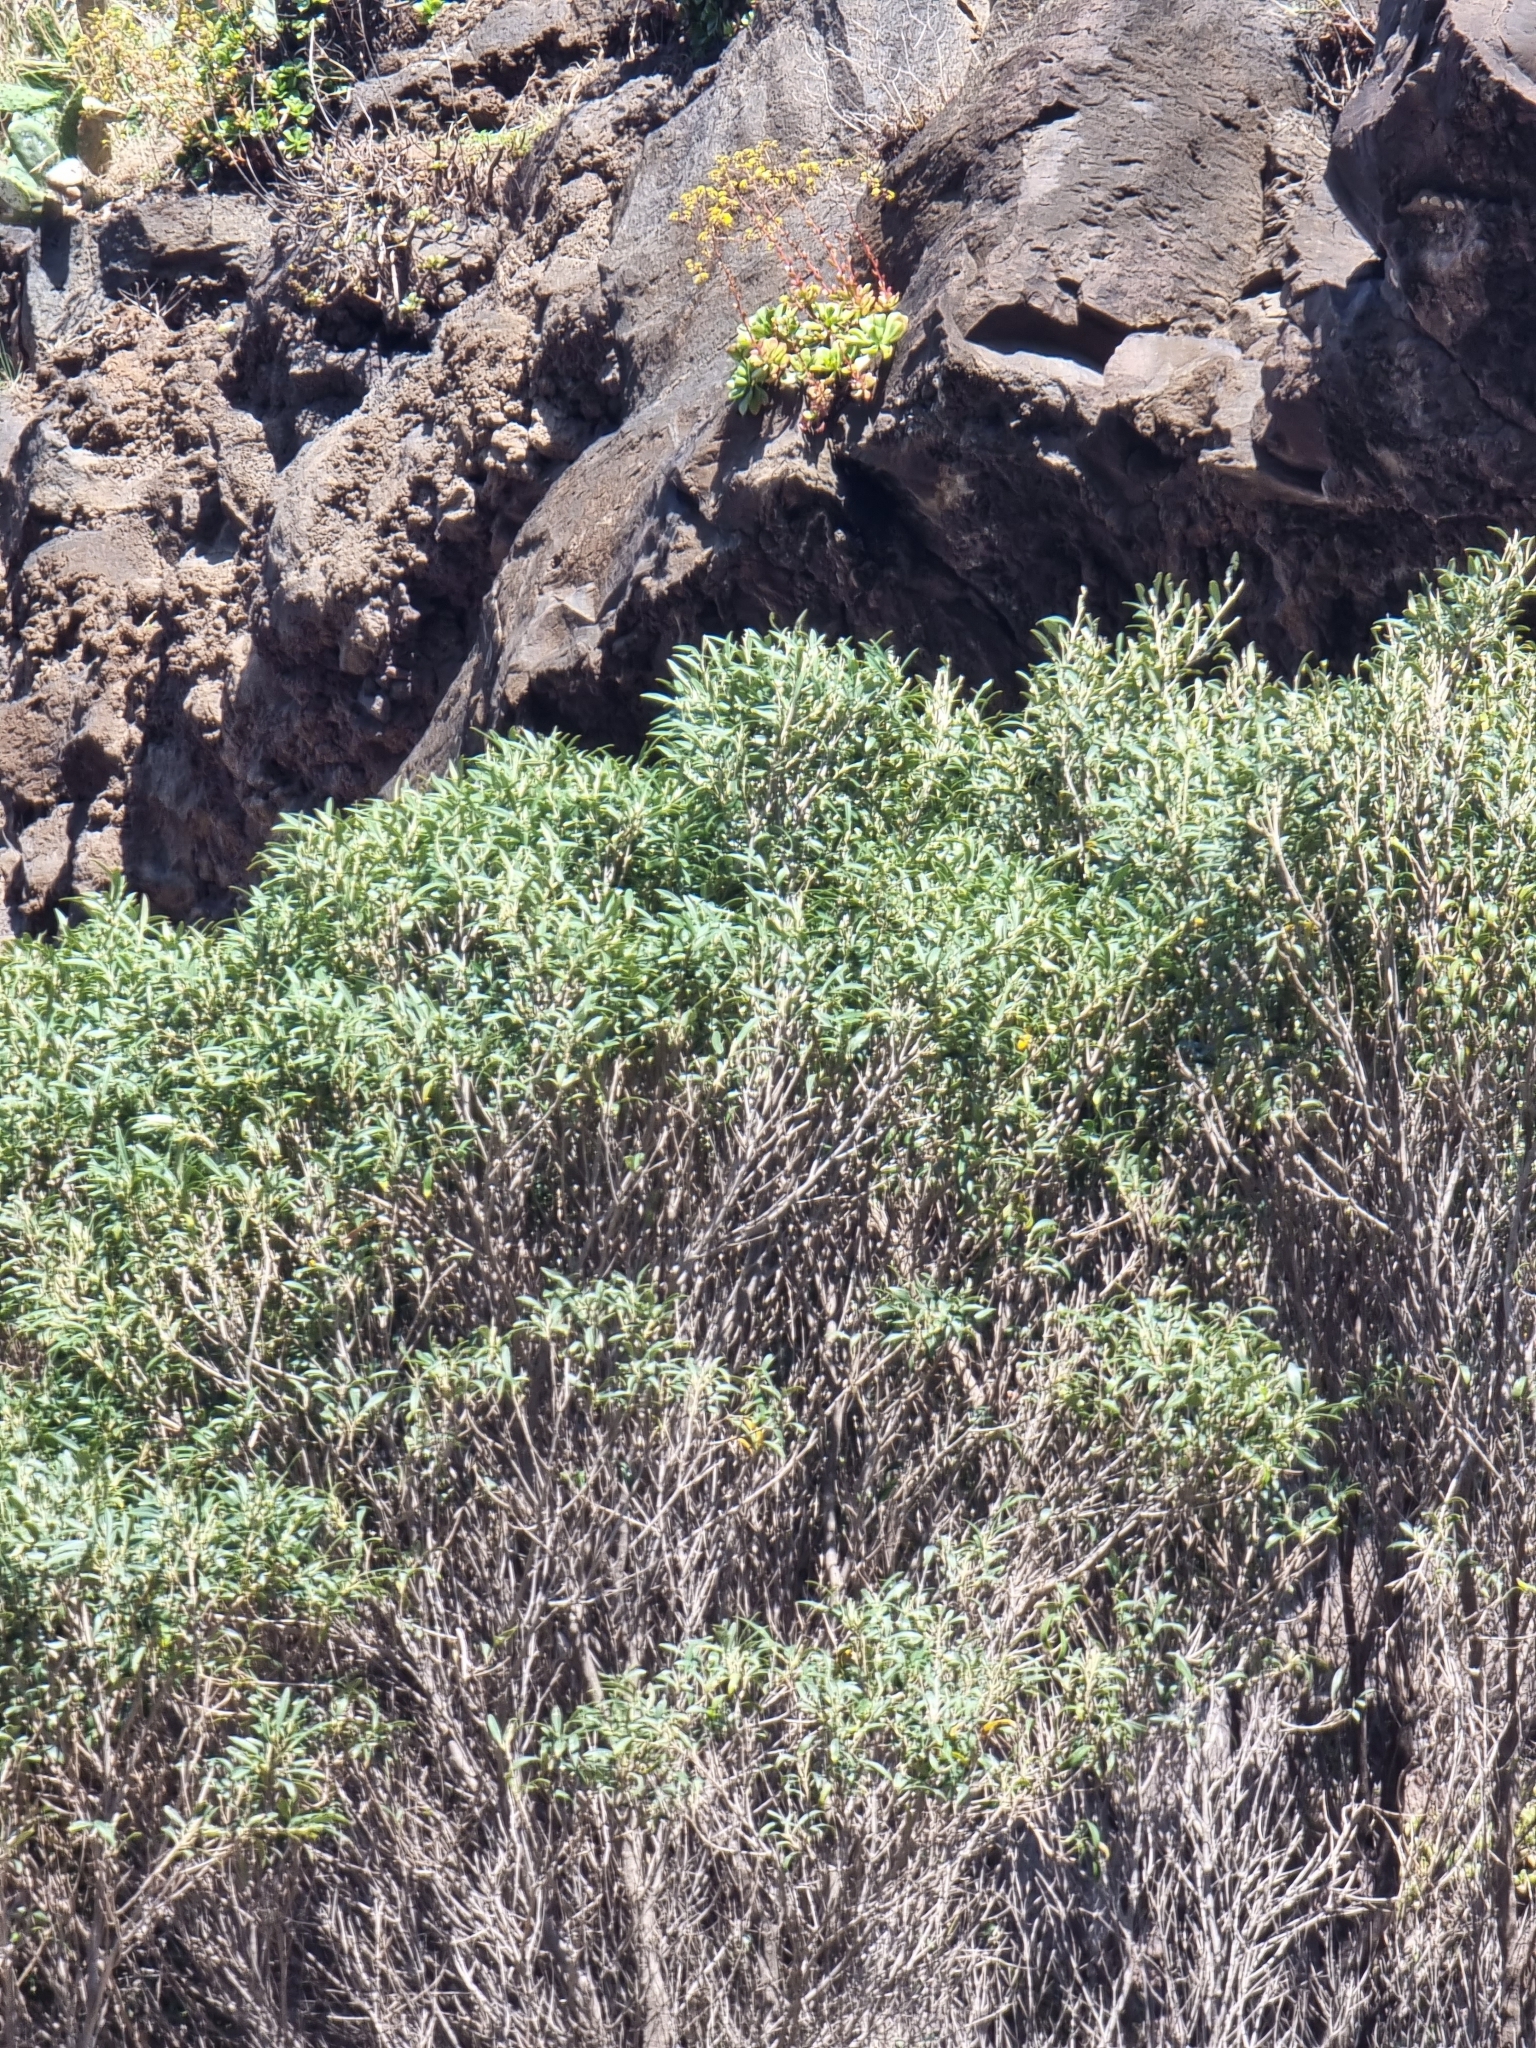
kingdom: Plantae
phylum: Tracheophyta
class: Magnoliopsida
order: Lamiales
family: Oleaceae
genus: Olea
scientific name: Olea europaea
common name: Olive
